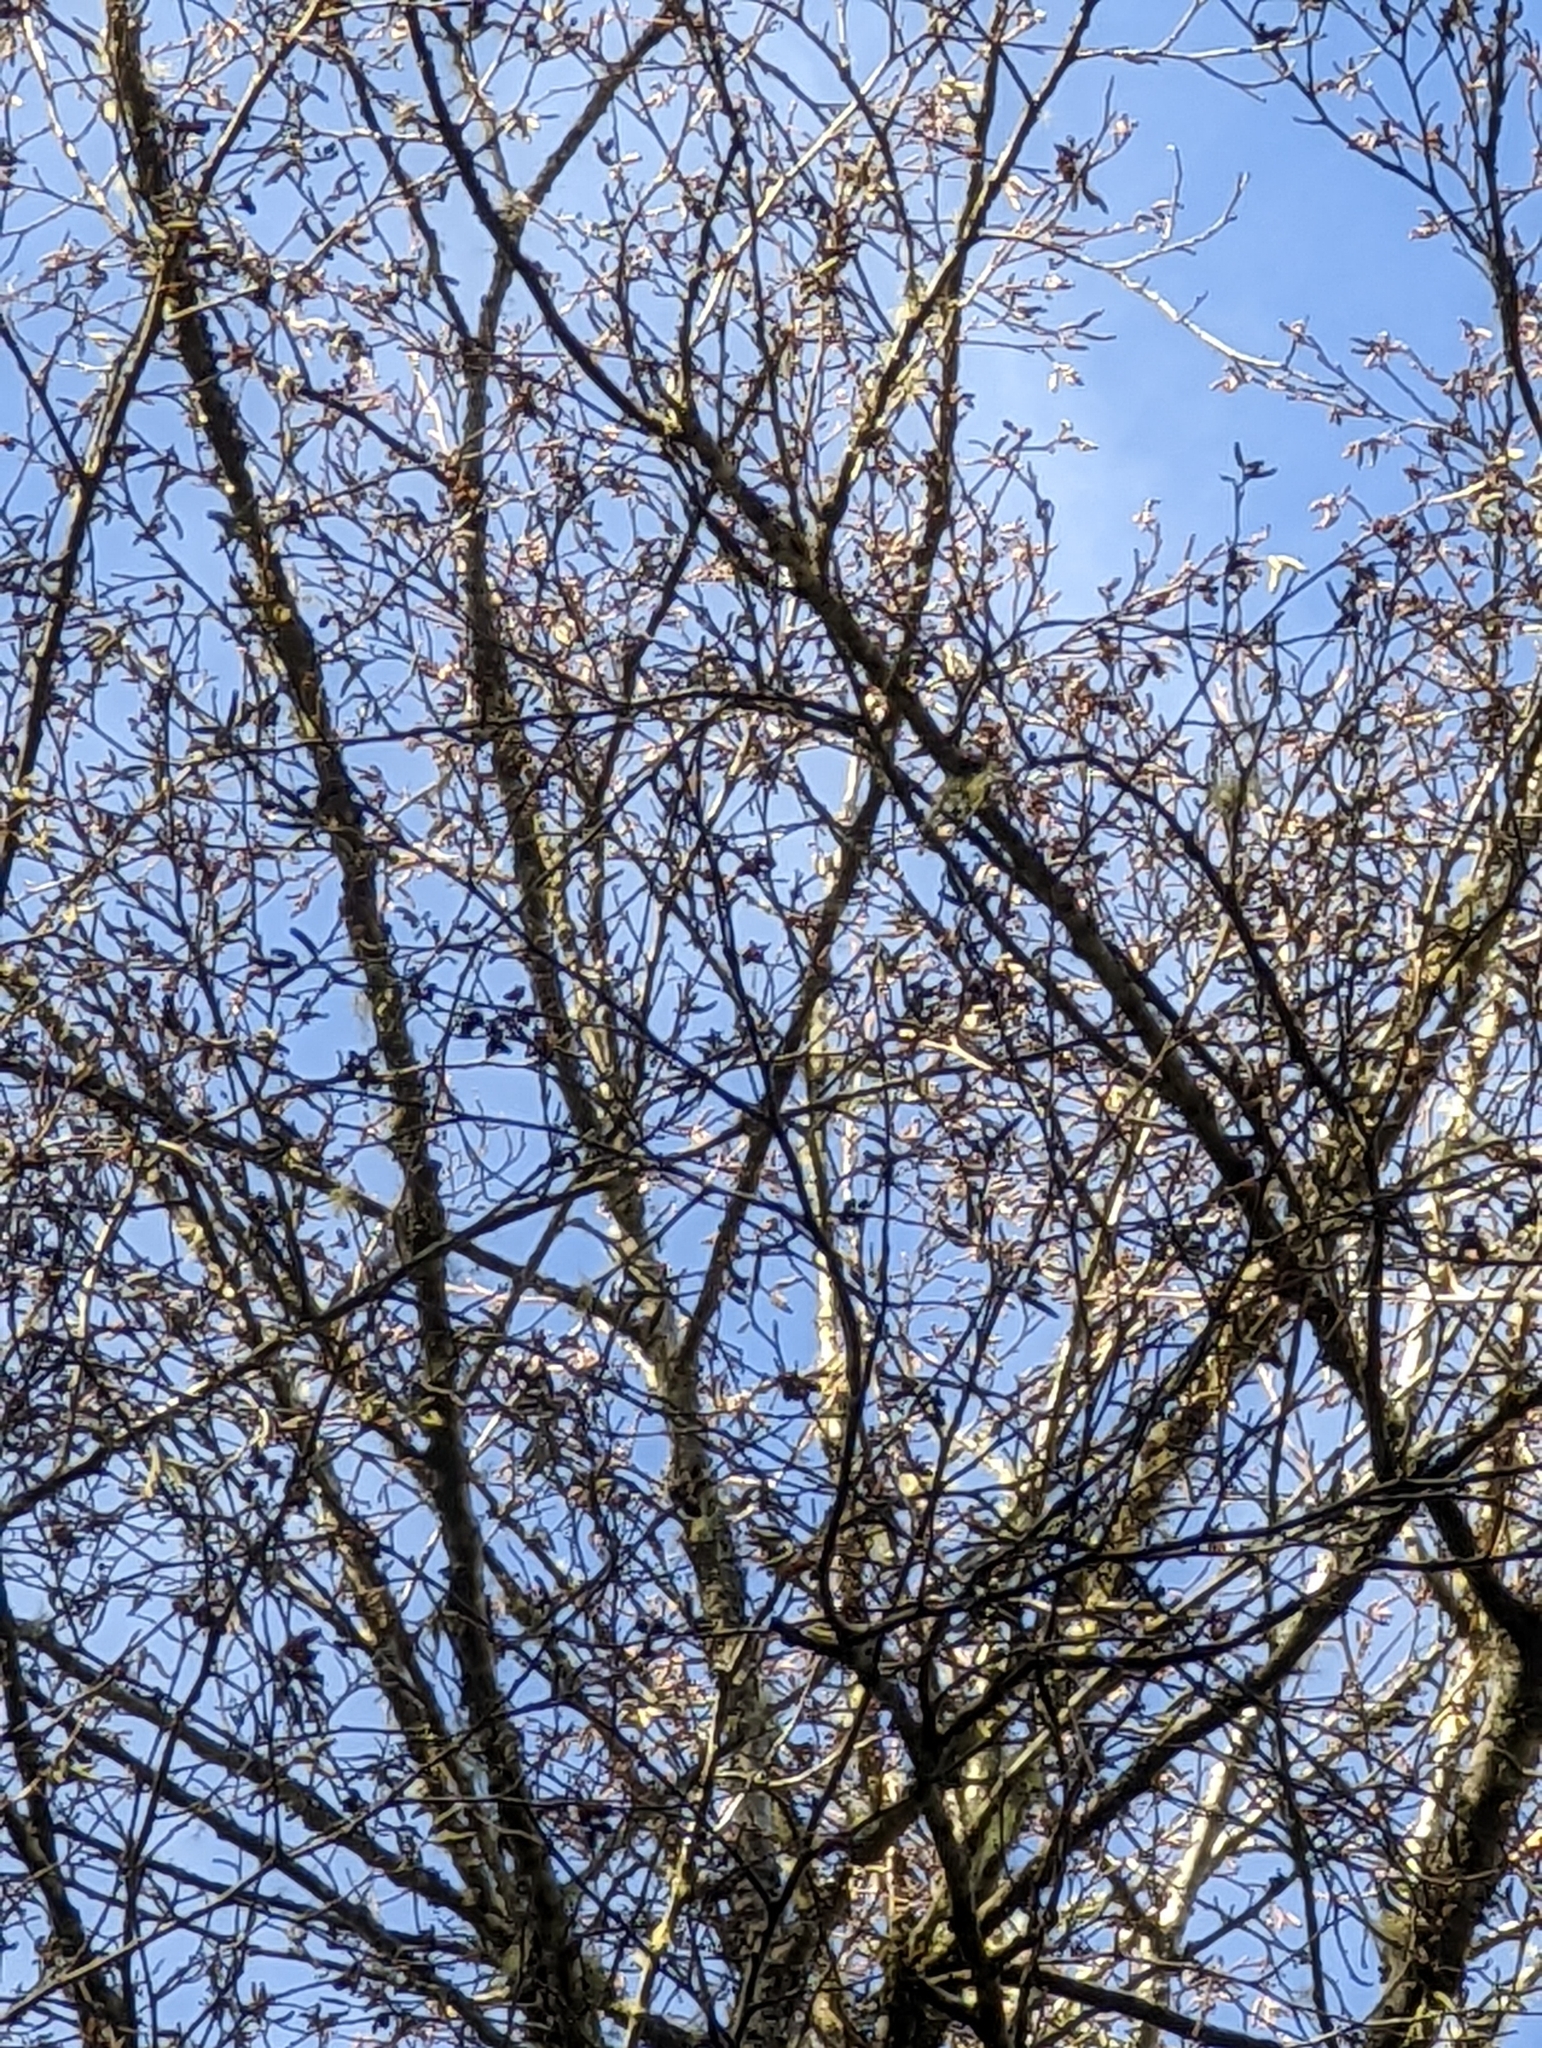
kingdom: Plantae
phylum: Tracheophyta
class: Magnoliopsida
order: Fagales
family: Betulaceae
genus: Alnus
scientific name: Alnus rubra
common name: Red alder
